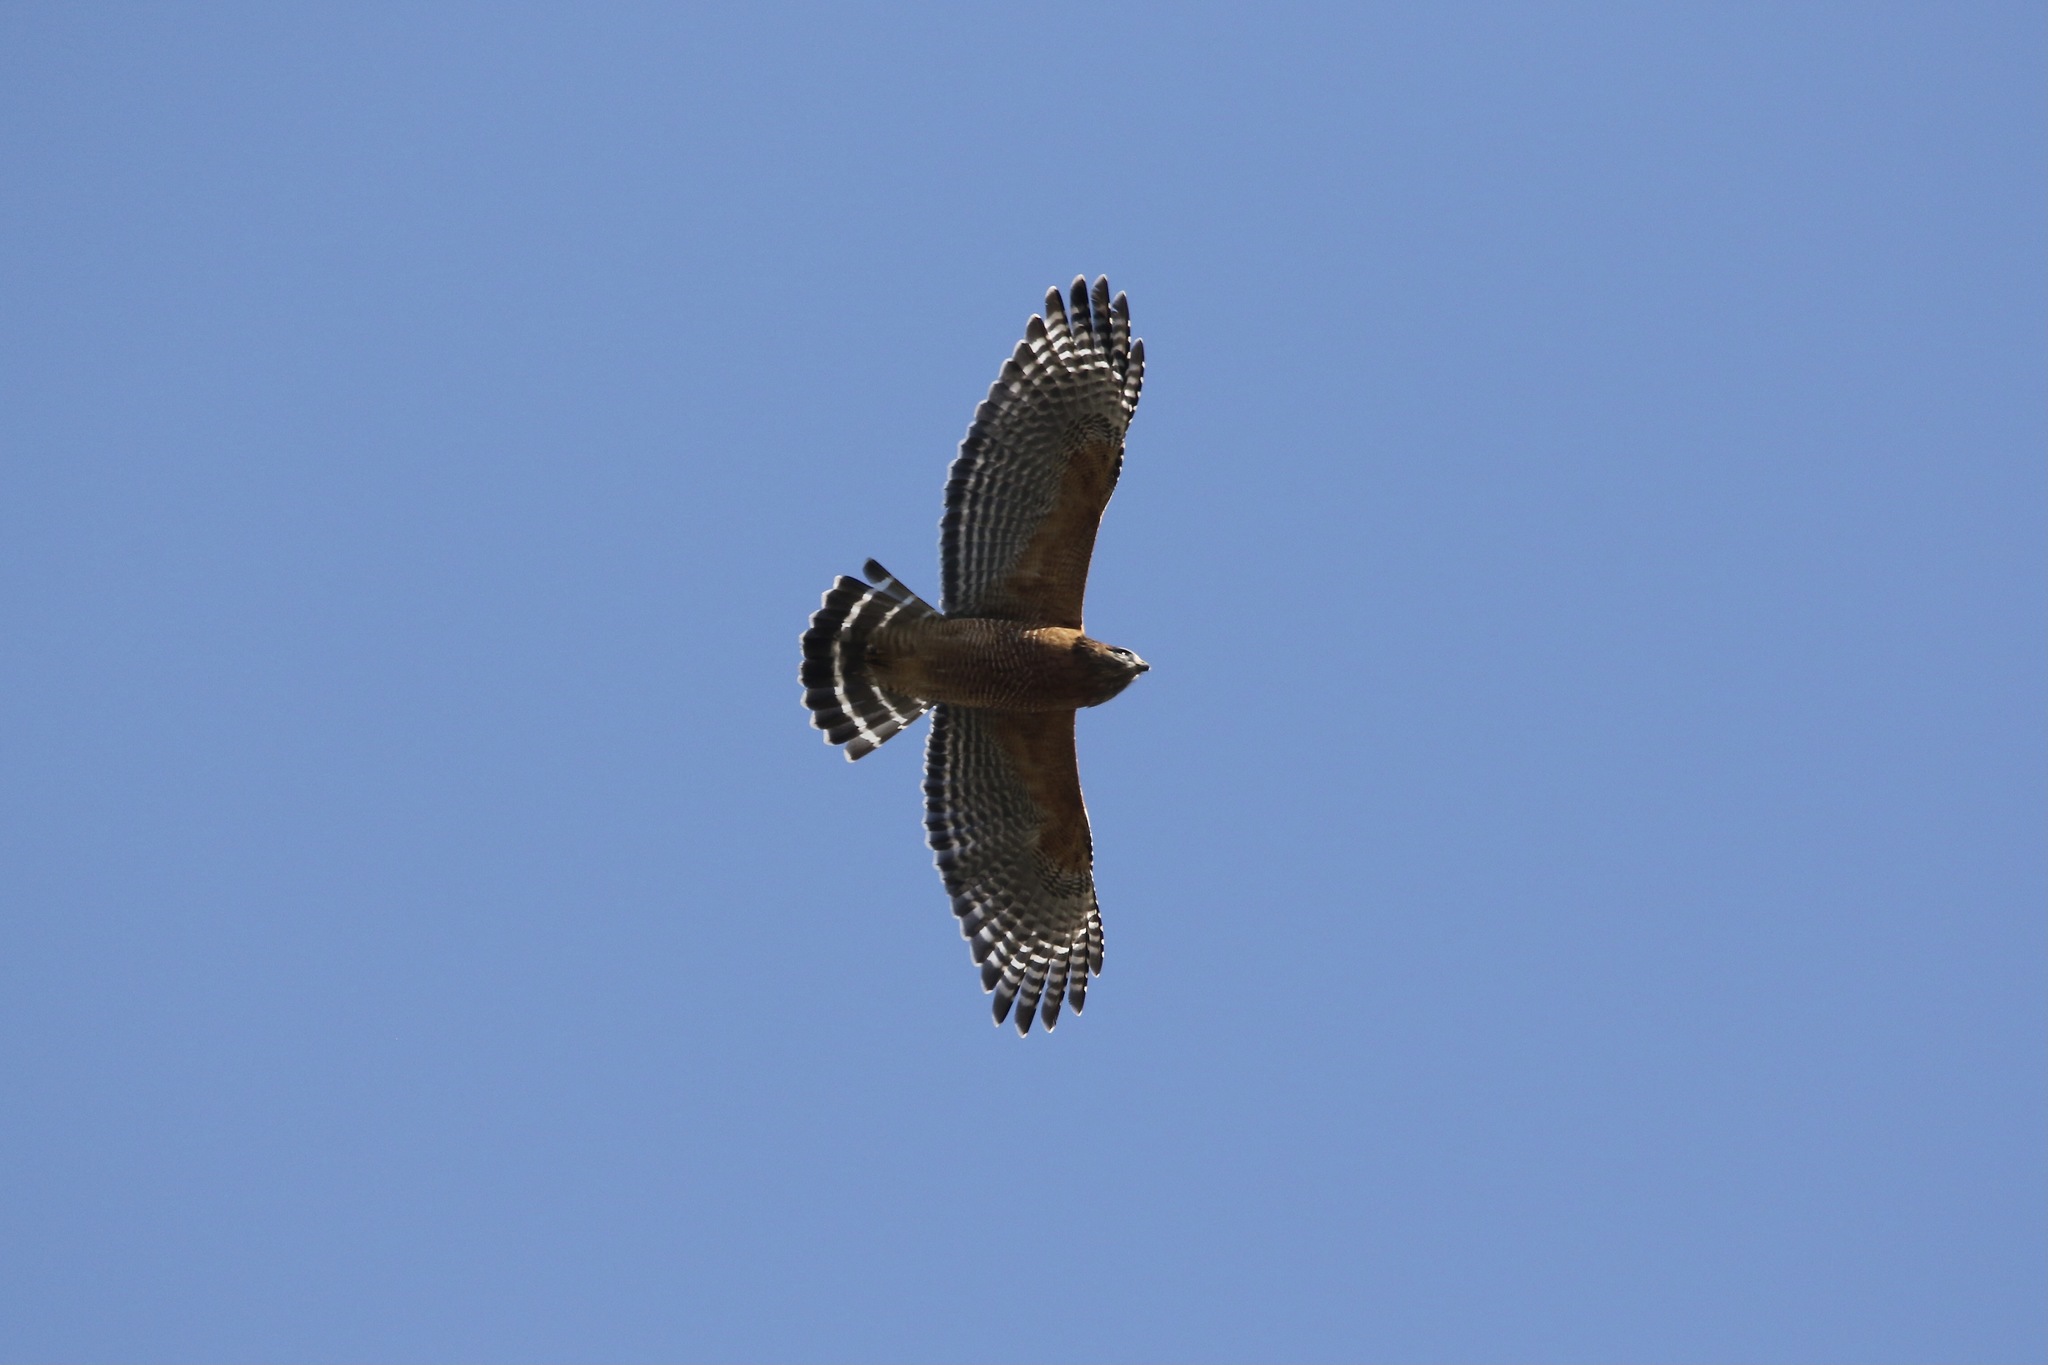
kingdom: Animalia
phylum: Chordata
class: Aves
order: Accipitriformes
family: Accipitridae
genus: Buteo
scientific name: Buteo lineatus
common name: Red-shouldered hawk
